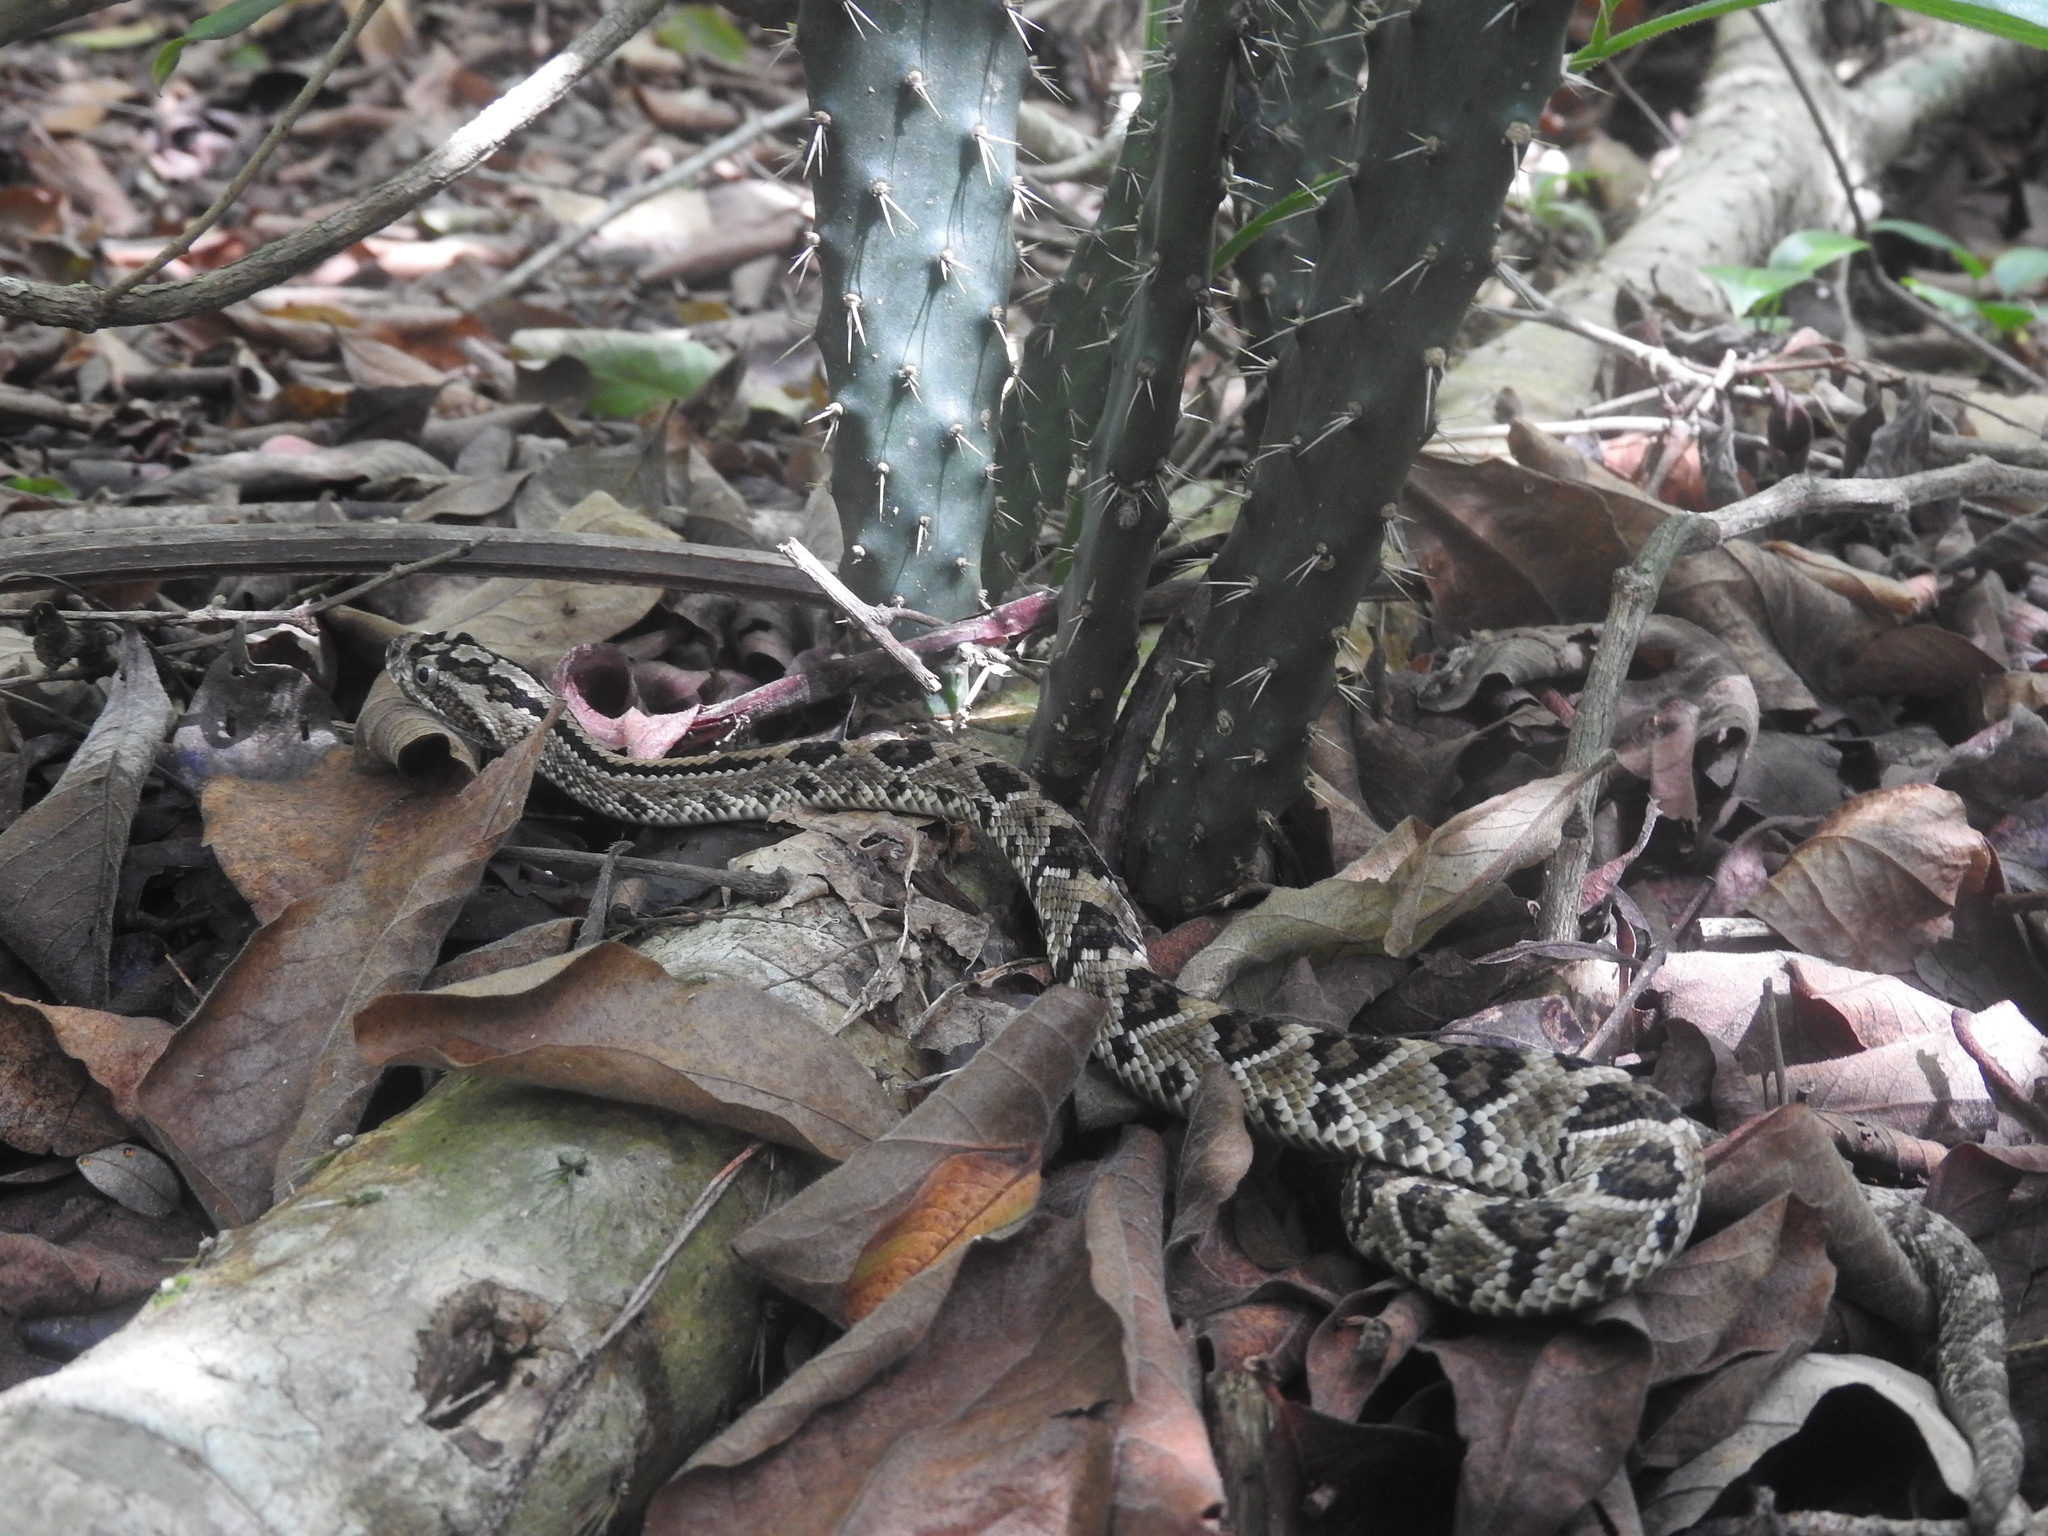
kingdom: Animalia
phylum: Chordata
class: Squamata
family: Viperidae
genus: Crotalus
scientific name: Crotalus tzabcan
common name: Yucatan neotropical rattlesnake
